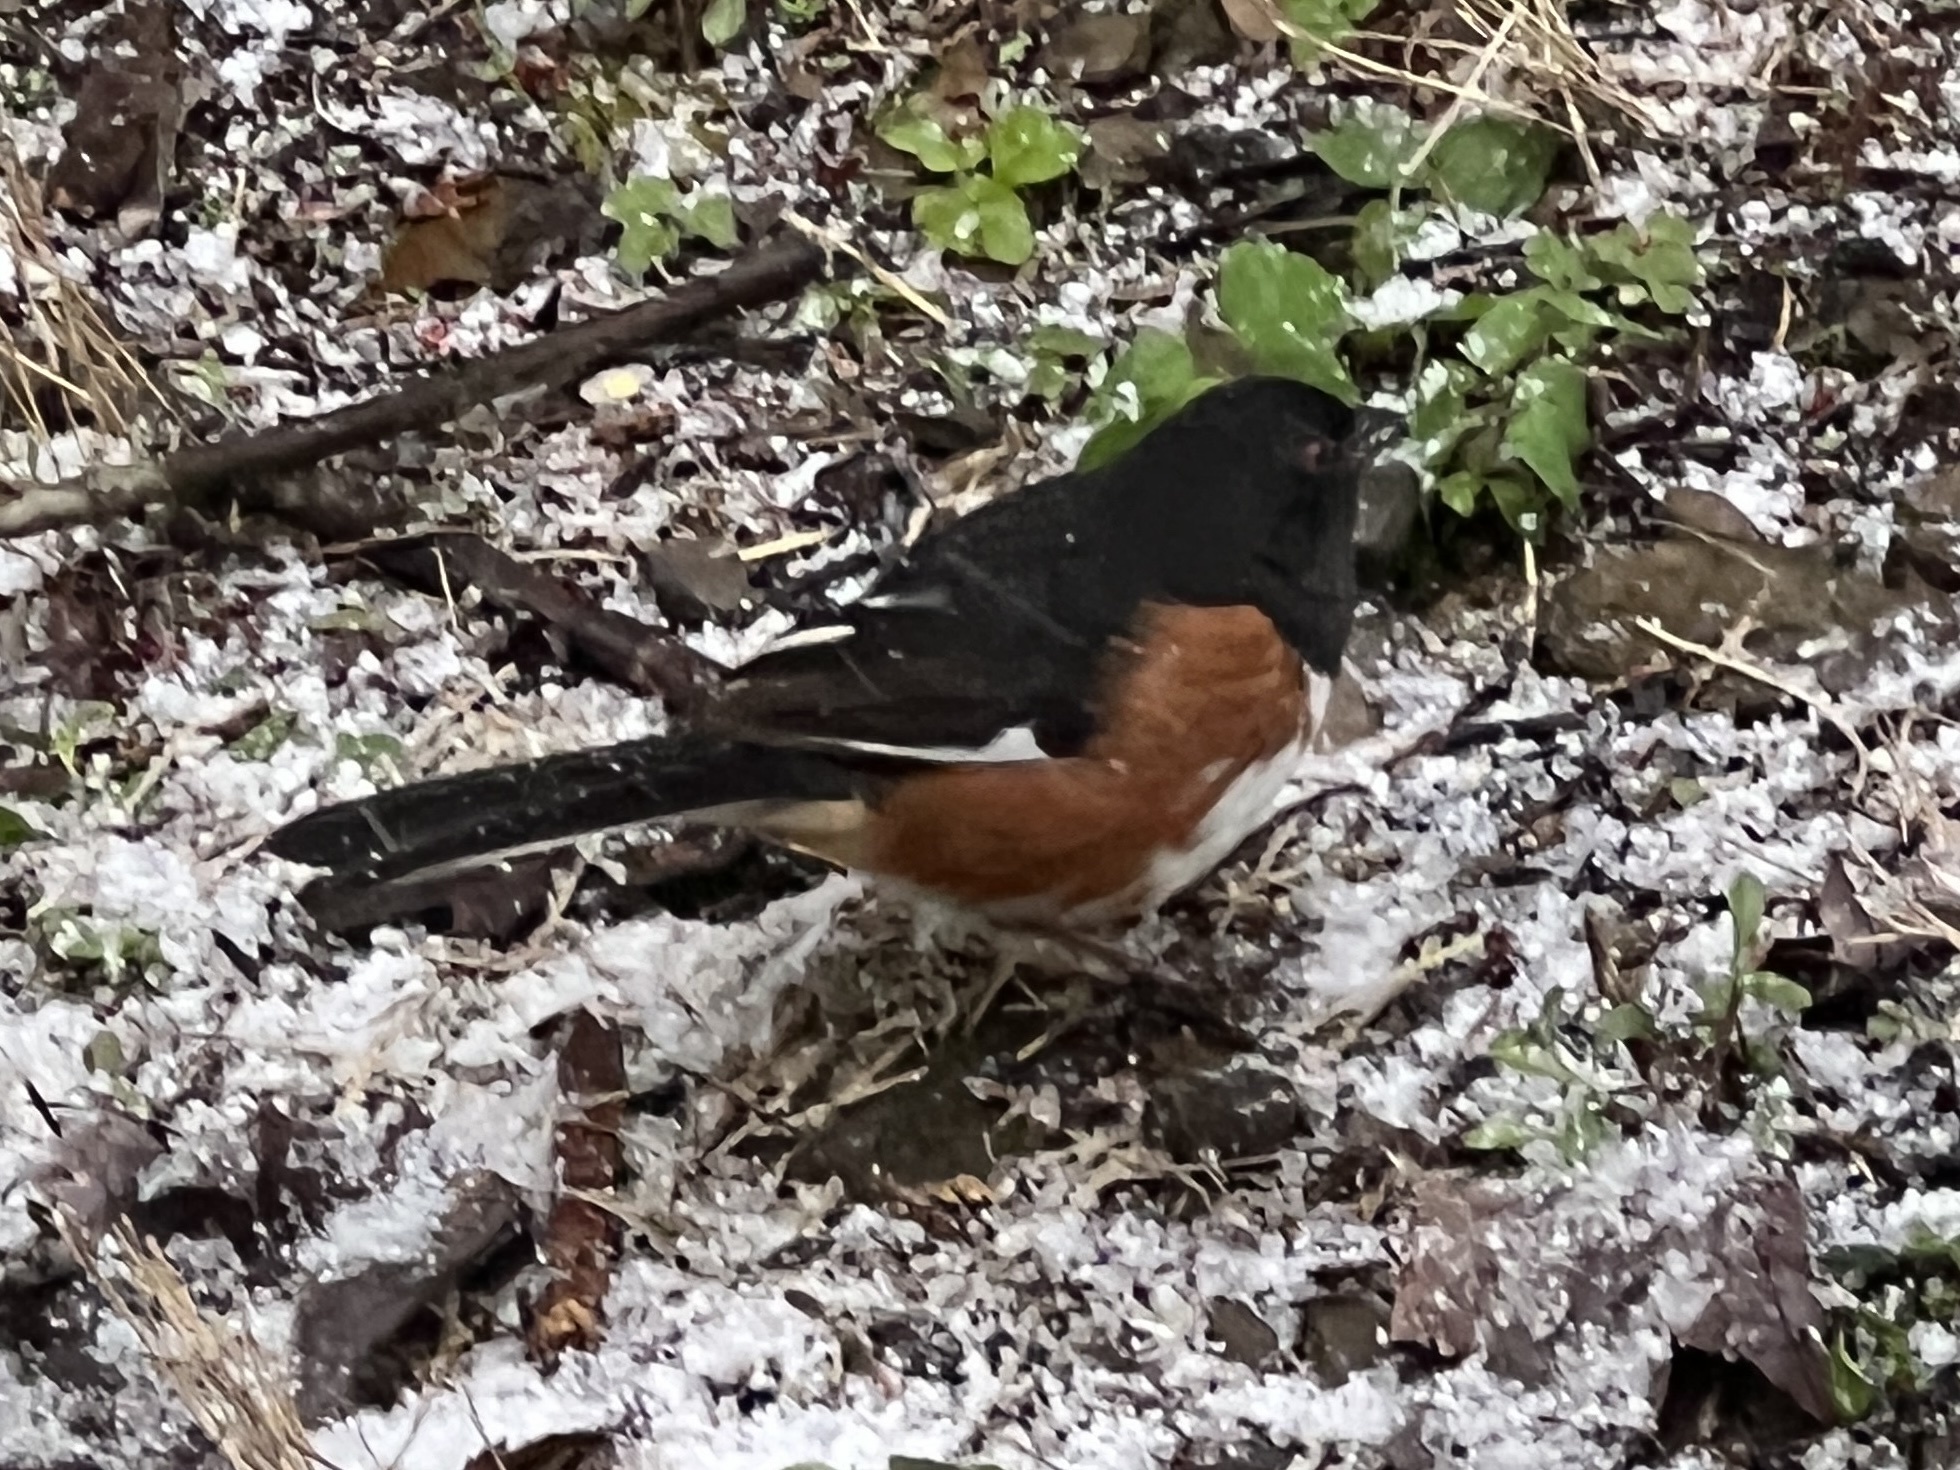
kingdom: Animalia
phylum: Chordata
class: Aves
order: Passeriformes
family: Passerellidae
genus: Pipilo
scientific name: Pipilo erythrophthalmus
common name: Eastern towhee
